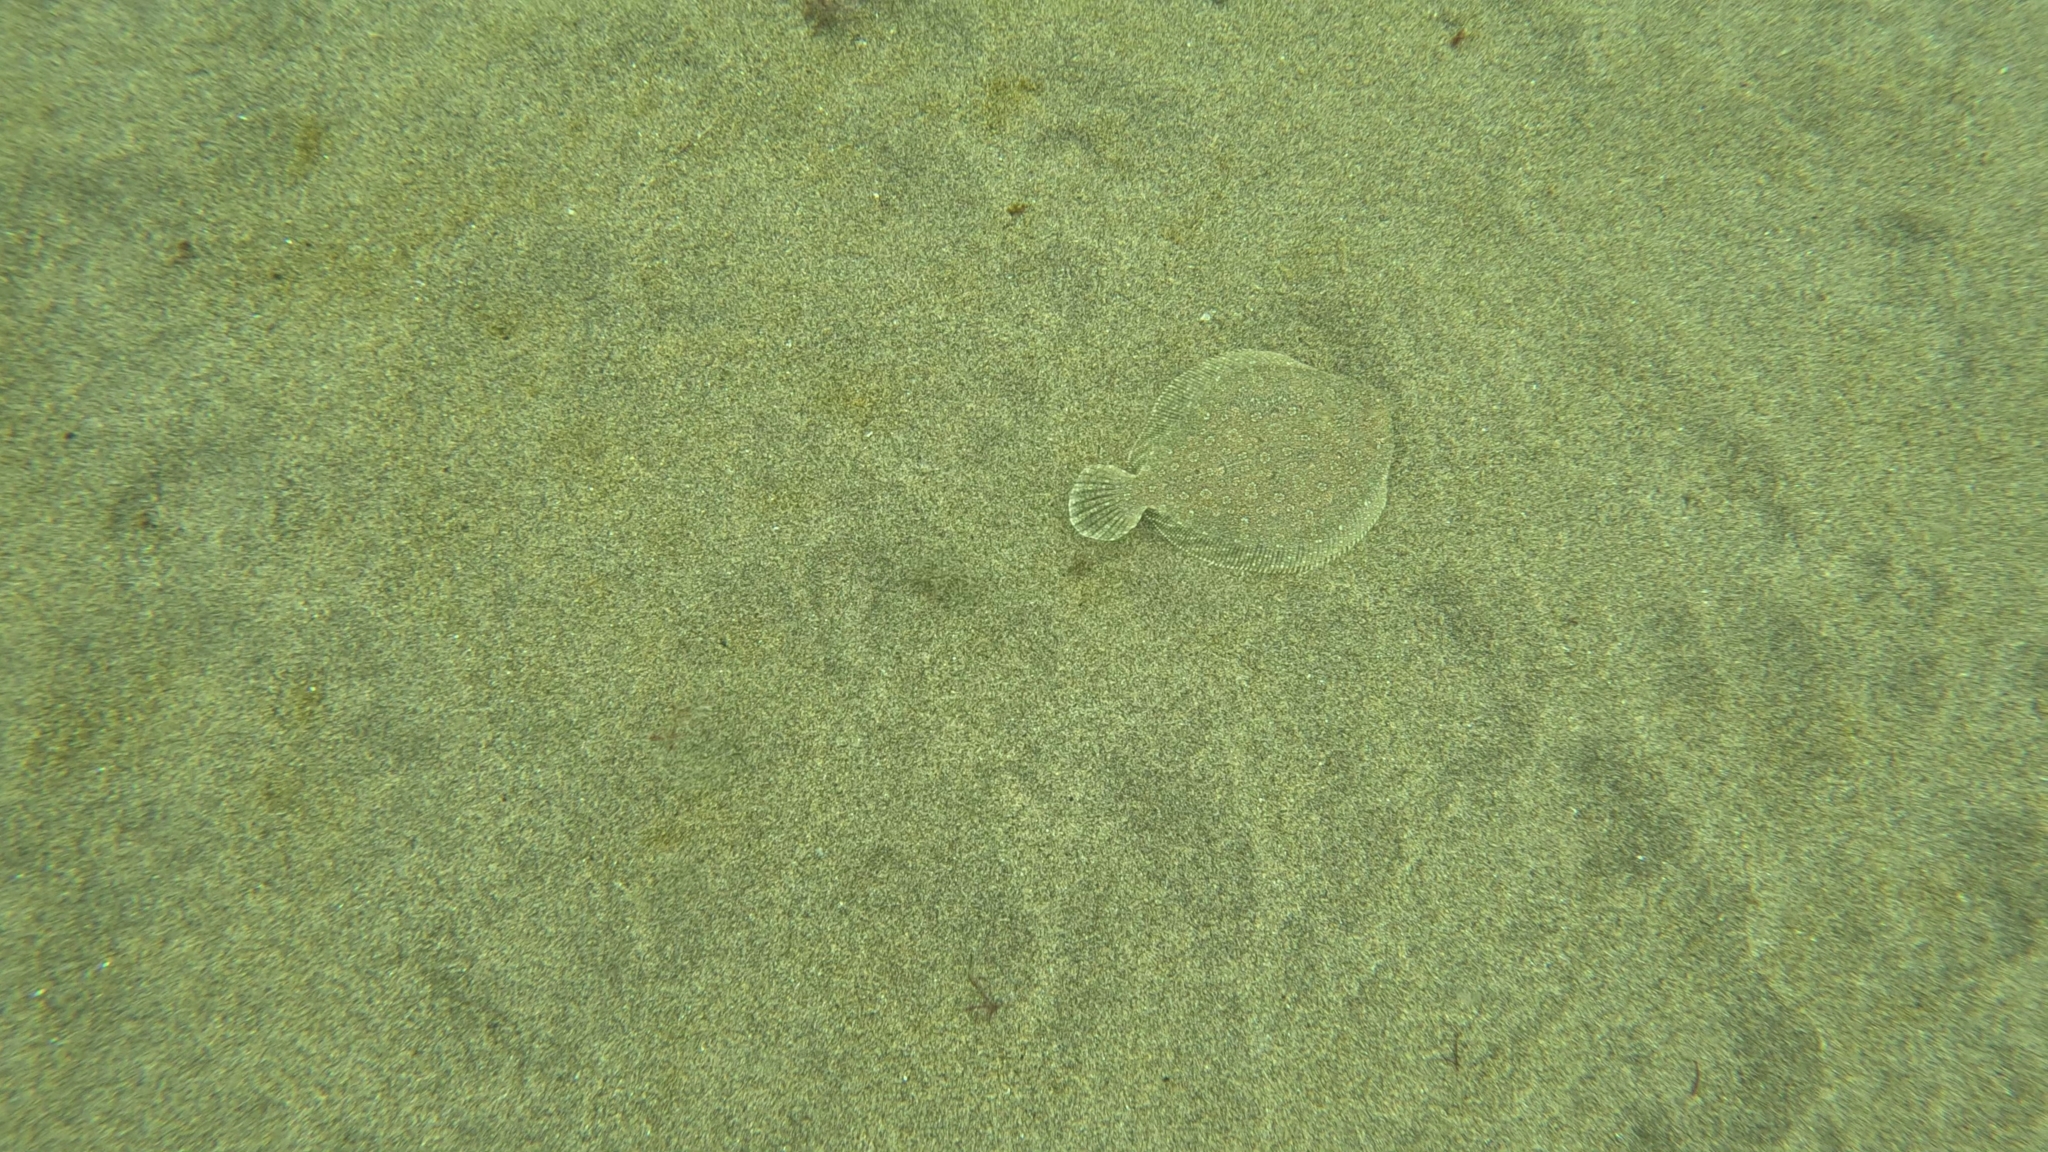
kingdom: Animalia
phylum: Chordata
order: Pleuronectiformes
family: Bothidae
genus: Bothus
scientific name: Bothus podas
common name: Wide-eyed flounder
